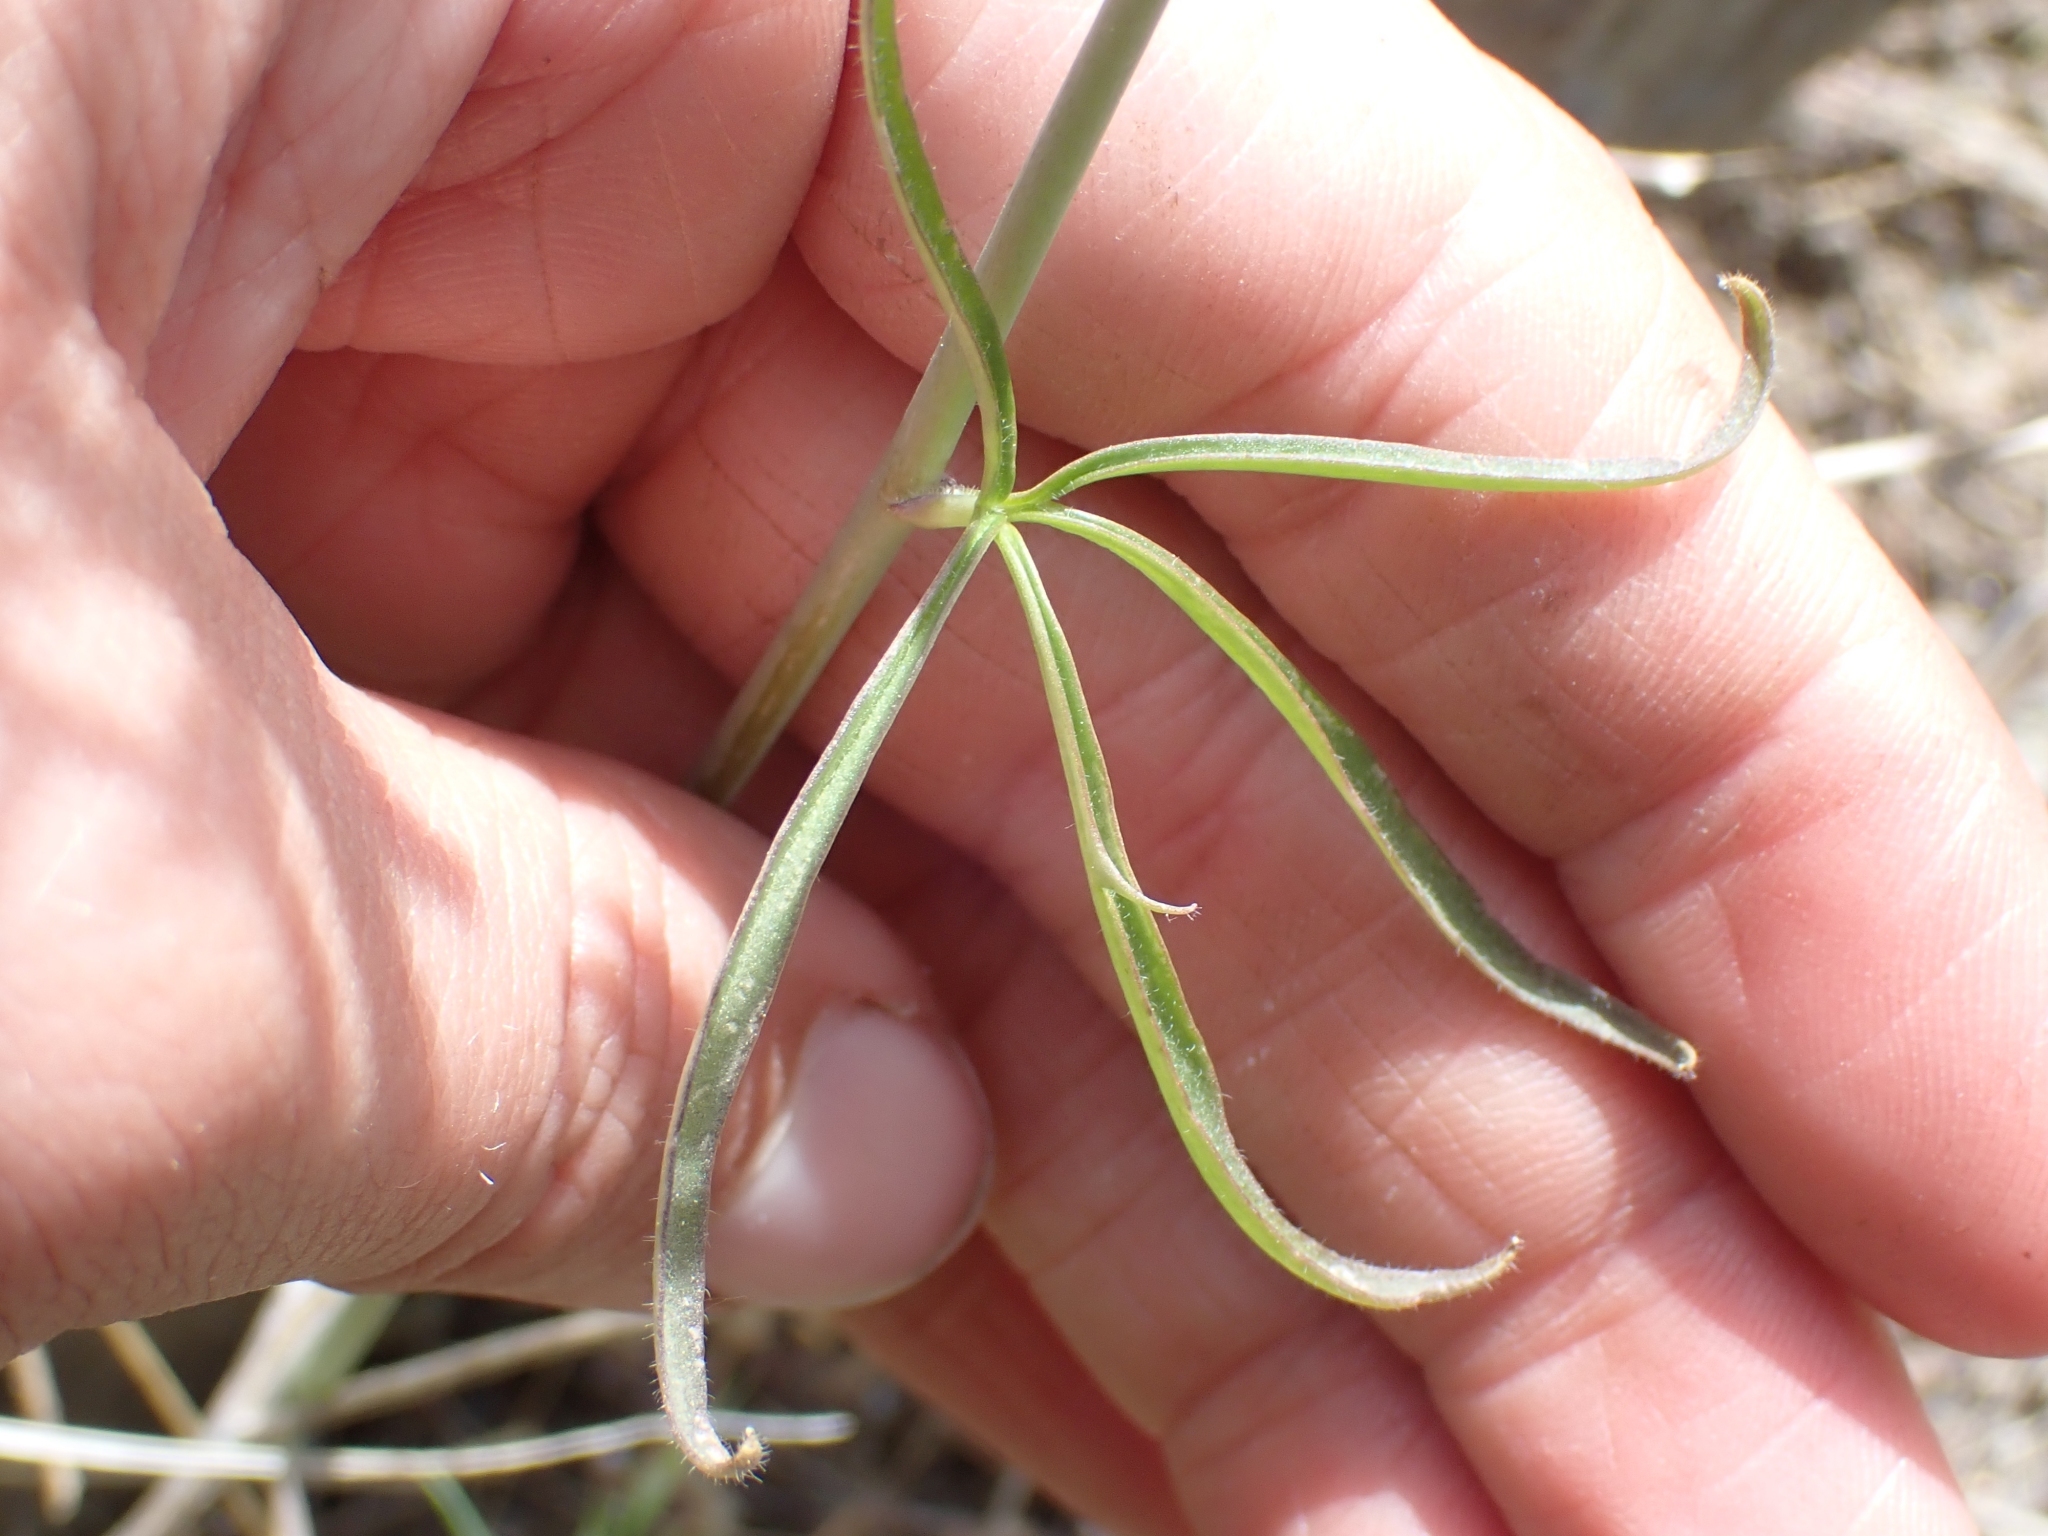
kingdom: Plantae
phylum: Tracheophyta
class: Magnoliopsida
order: Ranunculales
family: Ranunculaceae
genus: Delphinium
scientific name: Delphinium nuttallianum
